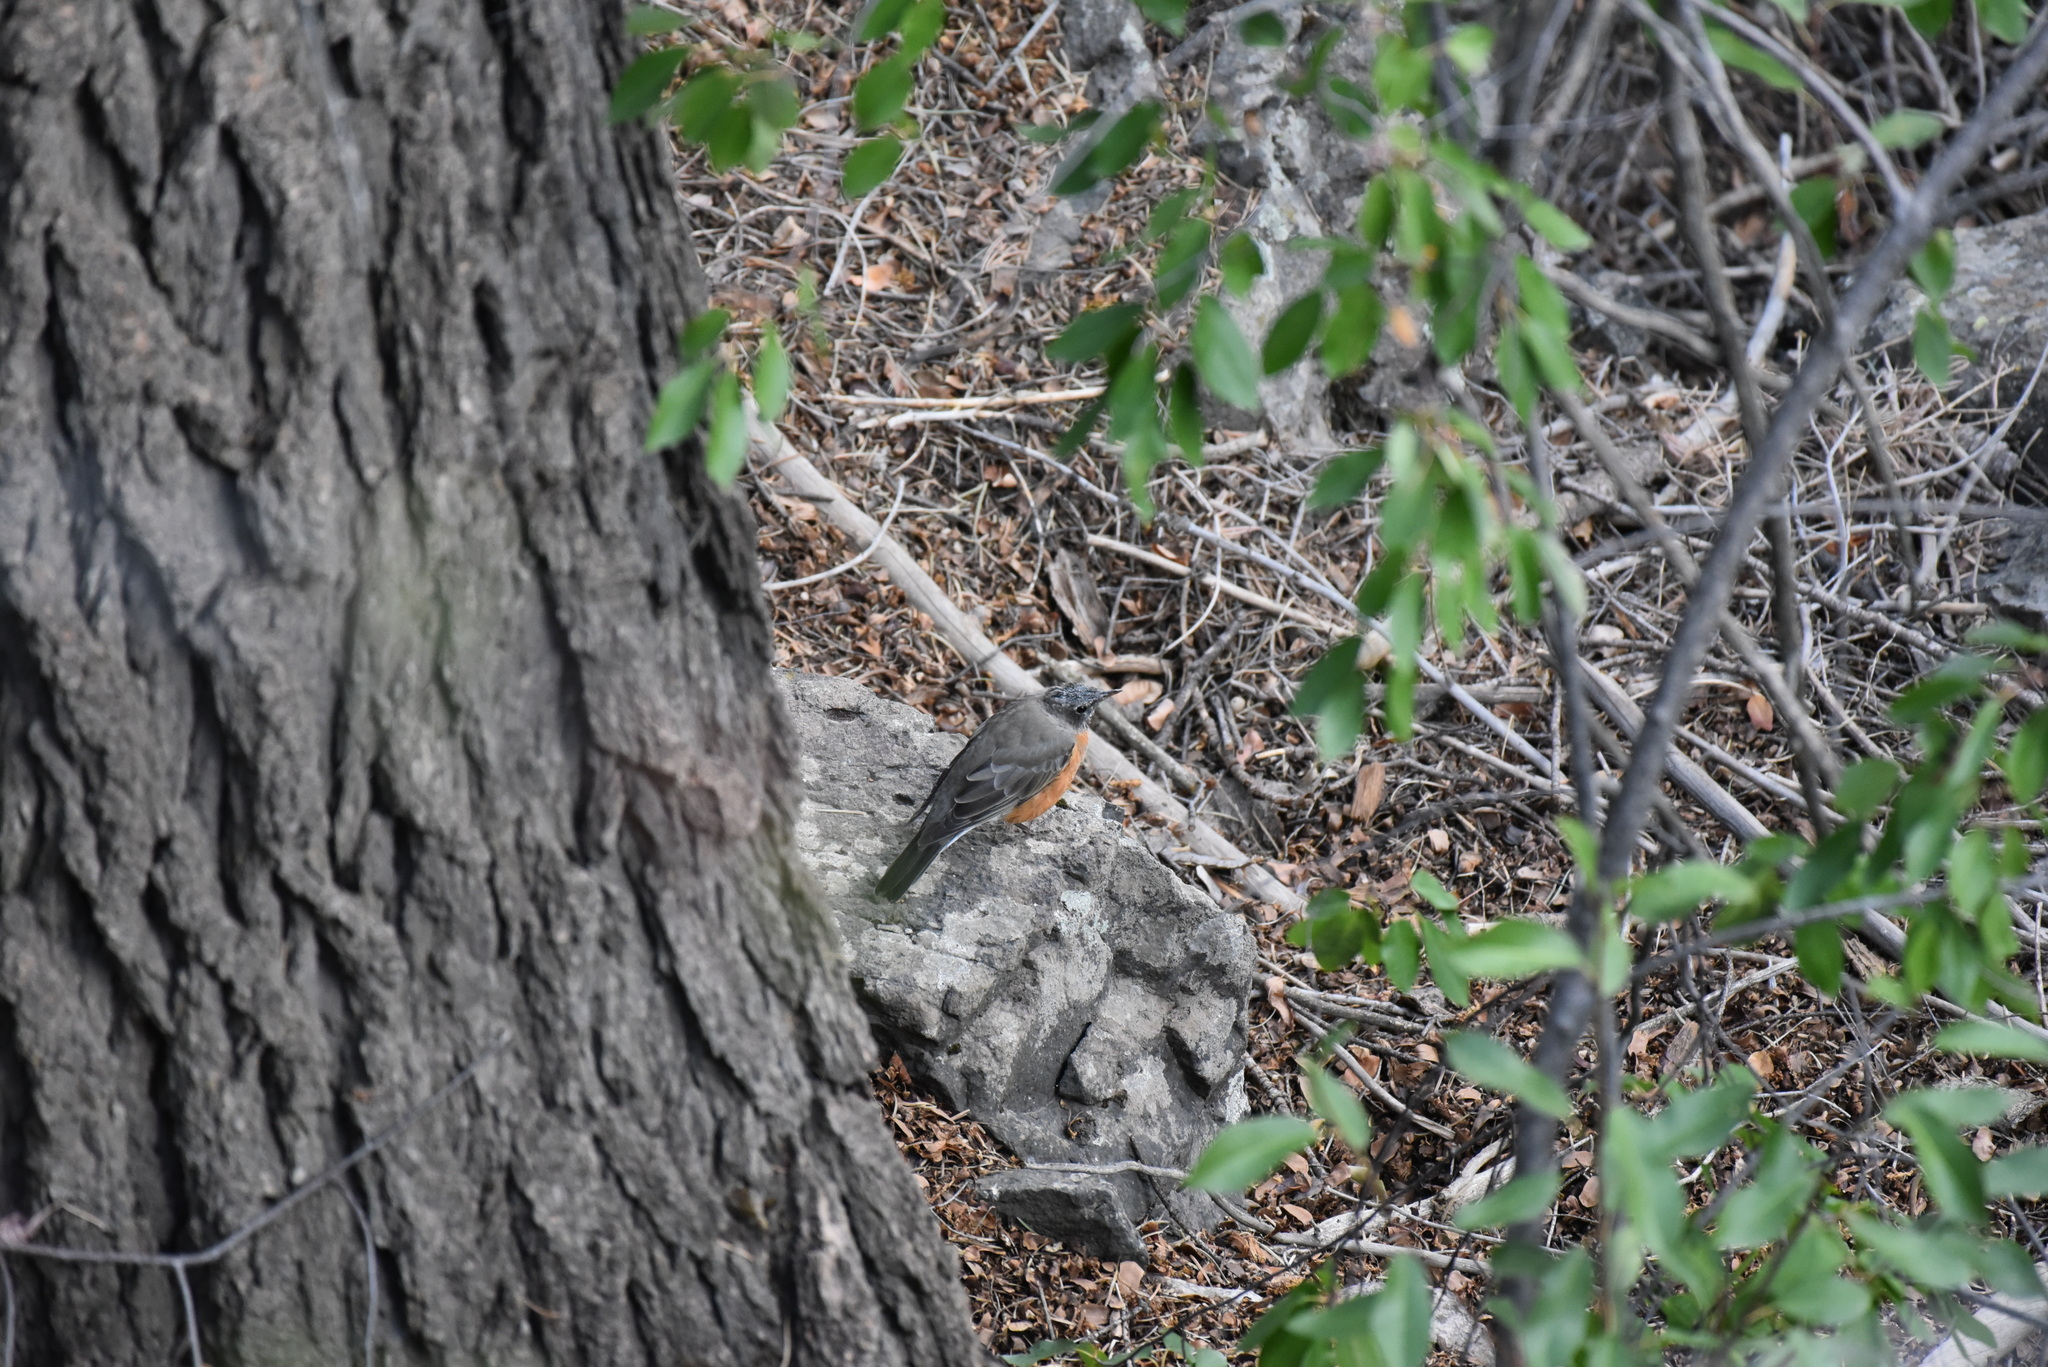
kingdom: Animalia
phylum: Chordata
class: Aves
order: Passeriformes
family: Turdidae
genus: Turdus
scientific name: Turdus migratorius
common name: American robin
